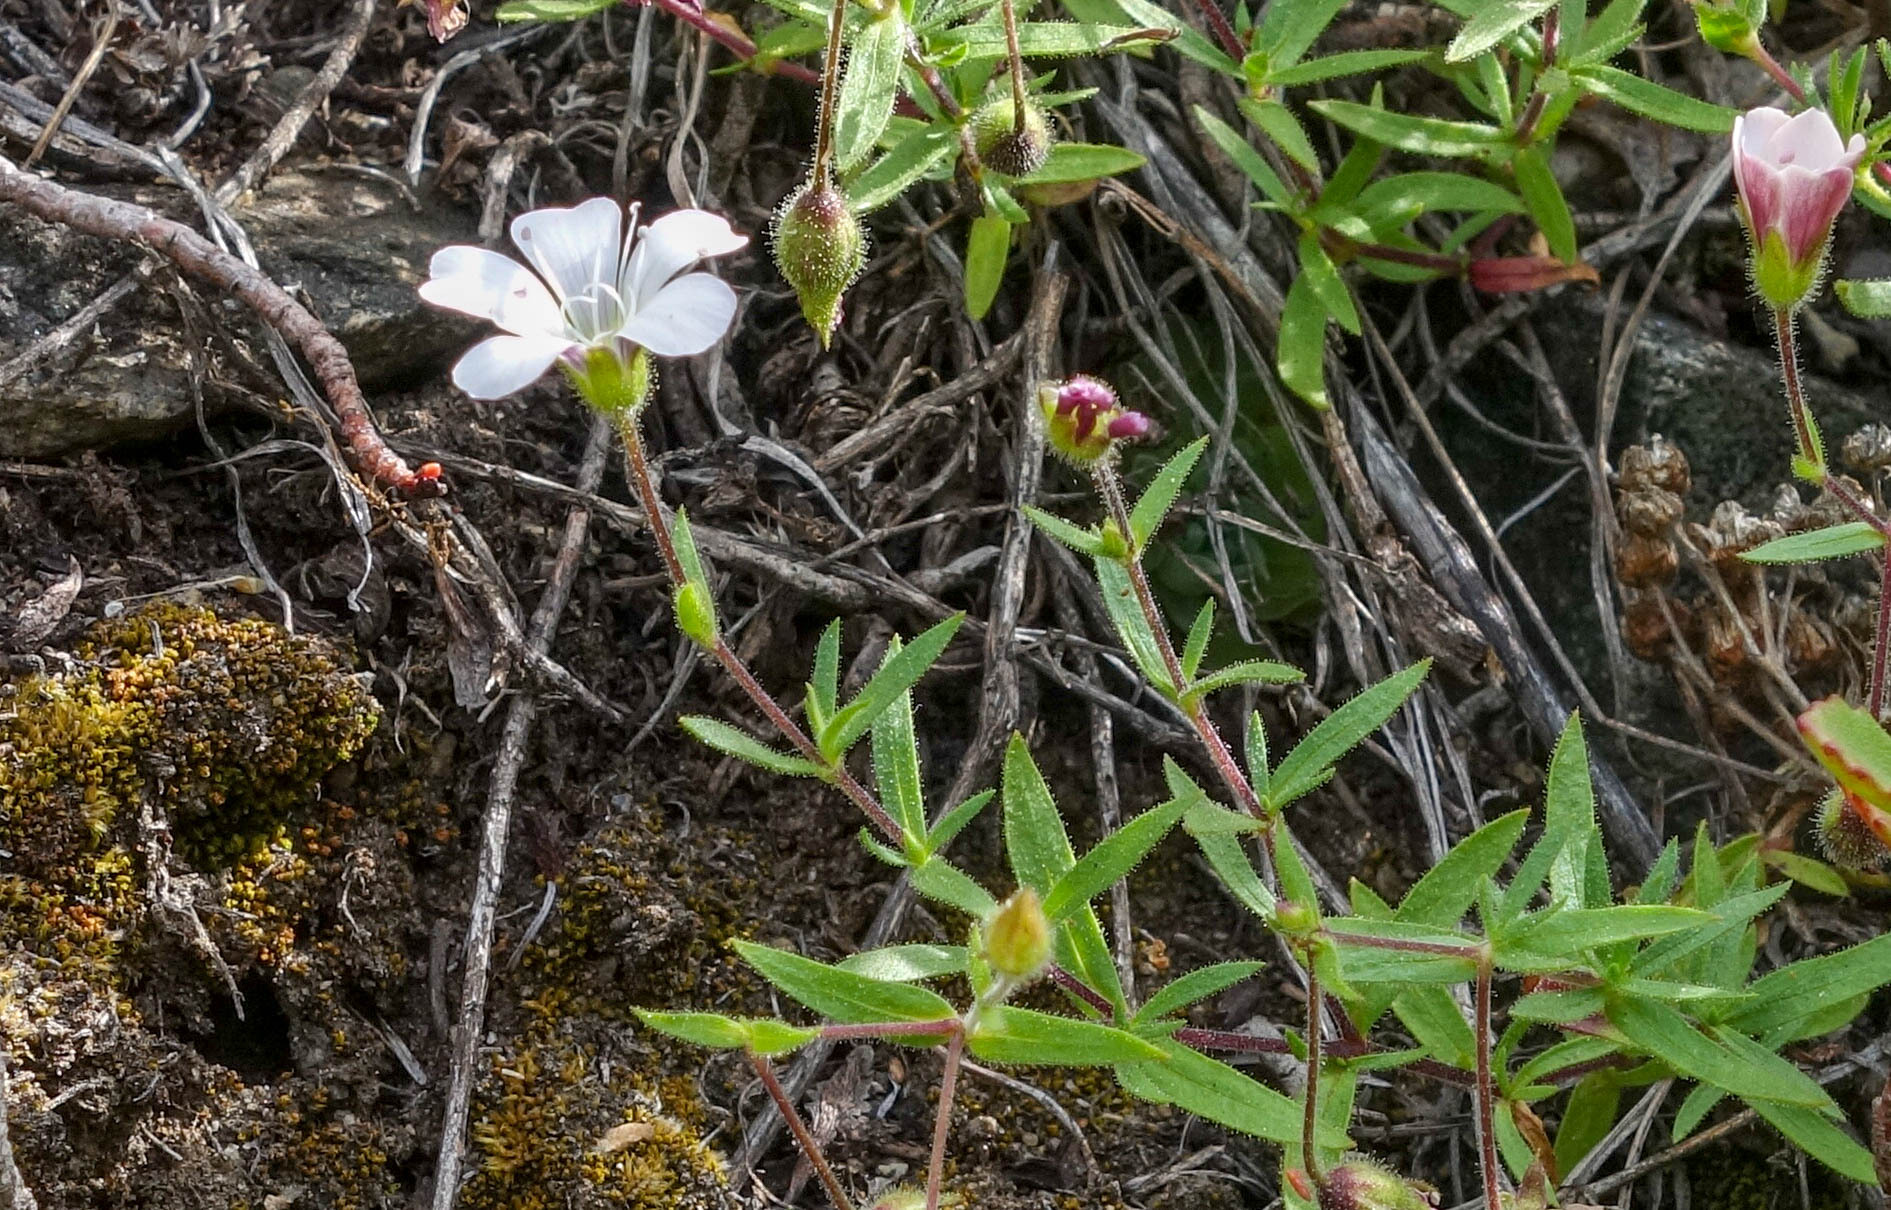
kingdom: Plantae
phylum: Tracheophyta
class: Magnoliopsida
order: Caryophyllales
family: Caryophyllaceae
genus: Heterochroa
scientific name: Heterochroa petraea
